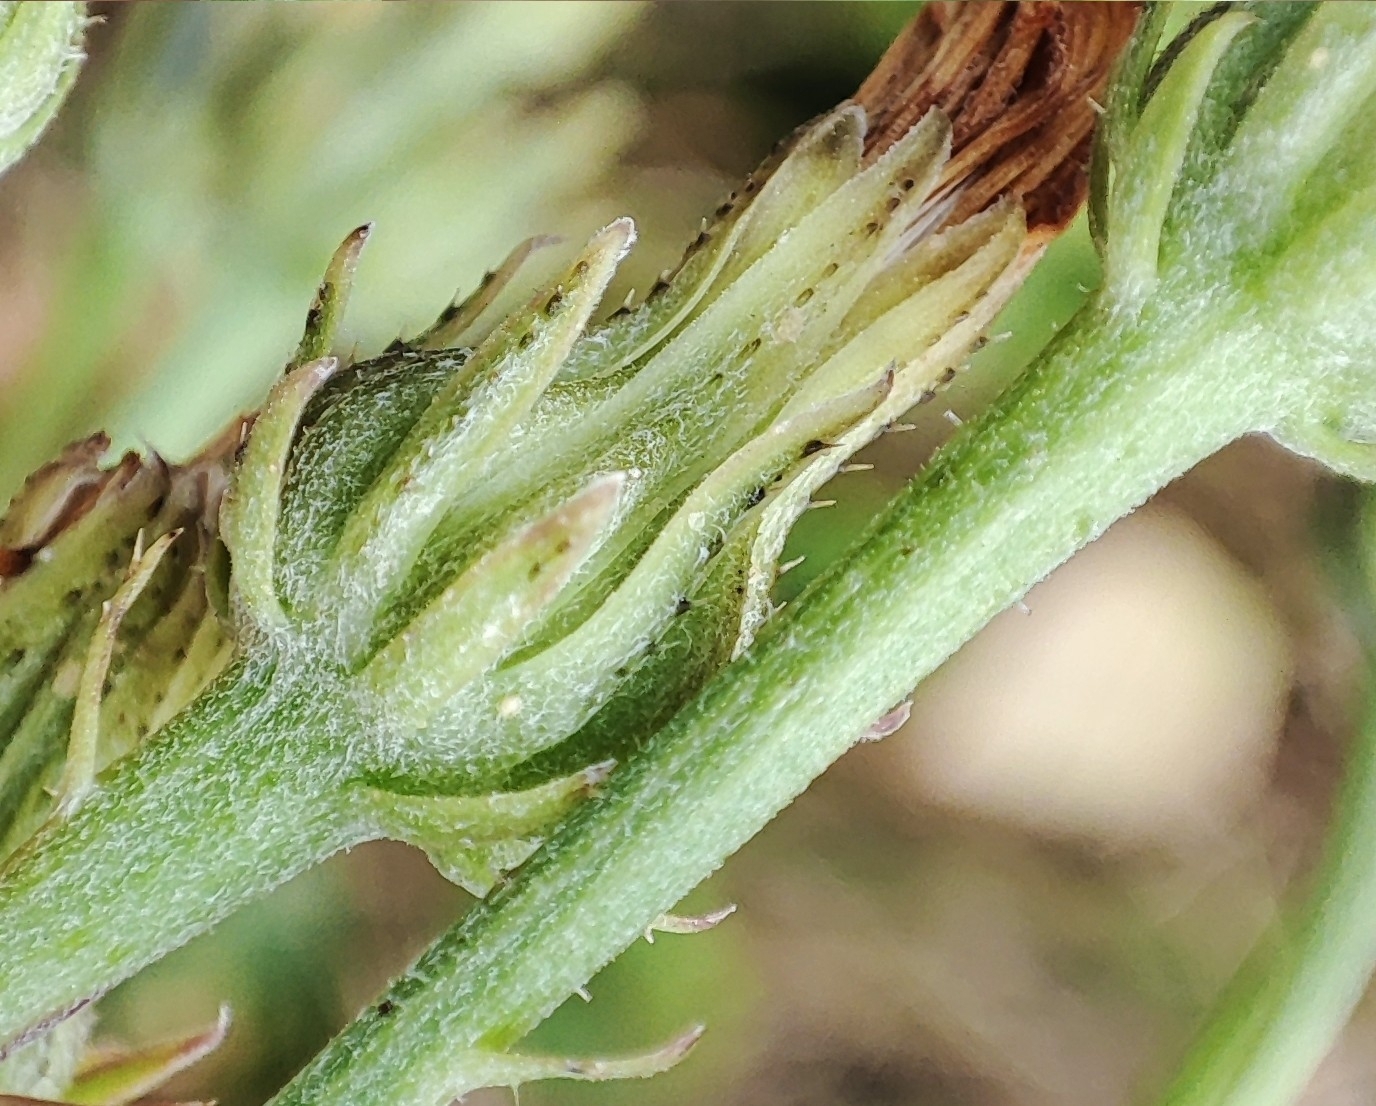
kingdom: Plantae
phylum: Tracheophyta
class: Magnoliopsida
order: Asterales
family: Asteraceae
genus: Picris
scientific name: Picris hieracioides
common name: Hawkweed oxtongue
